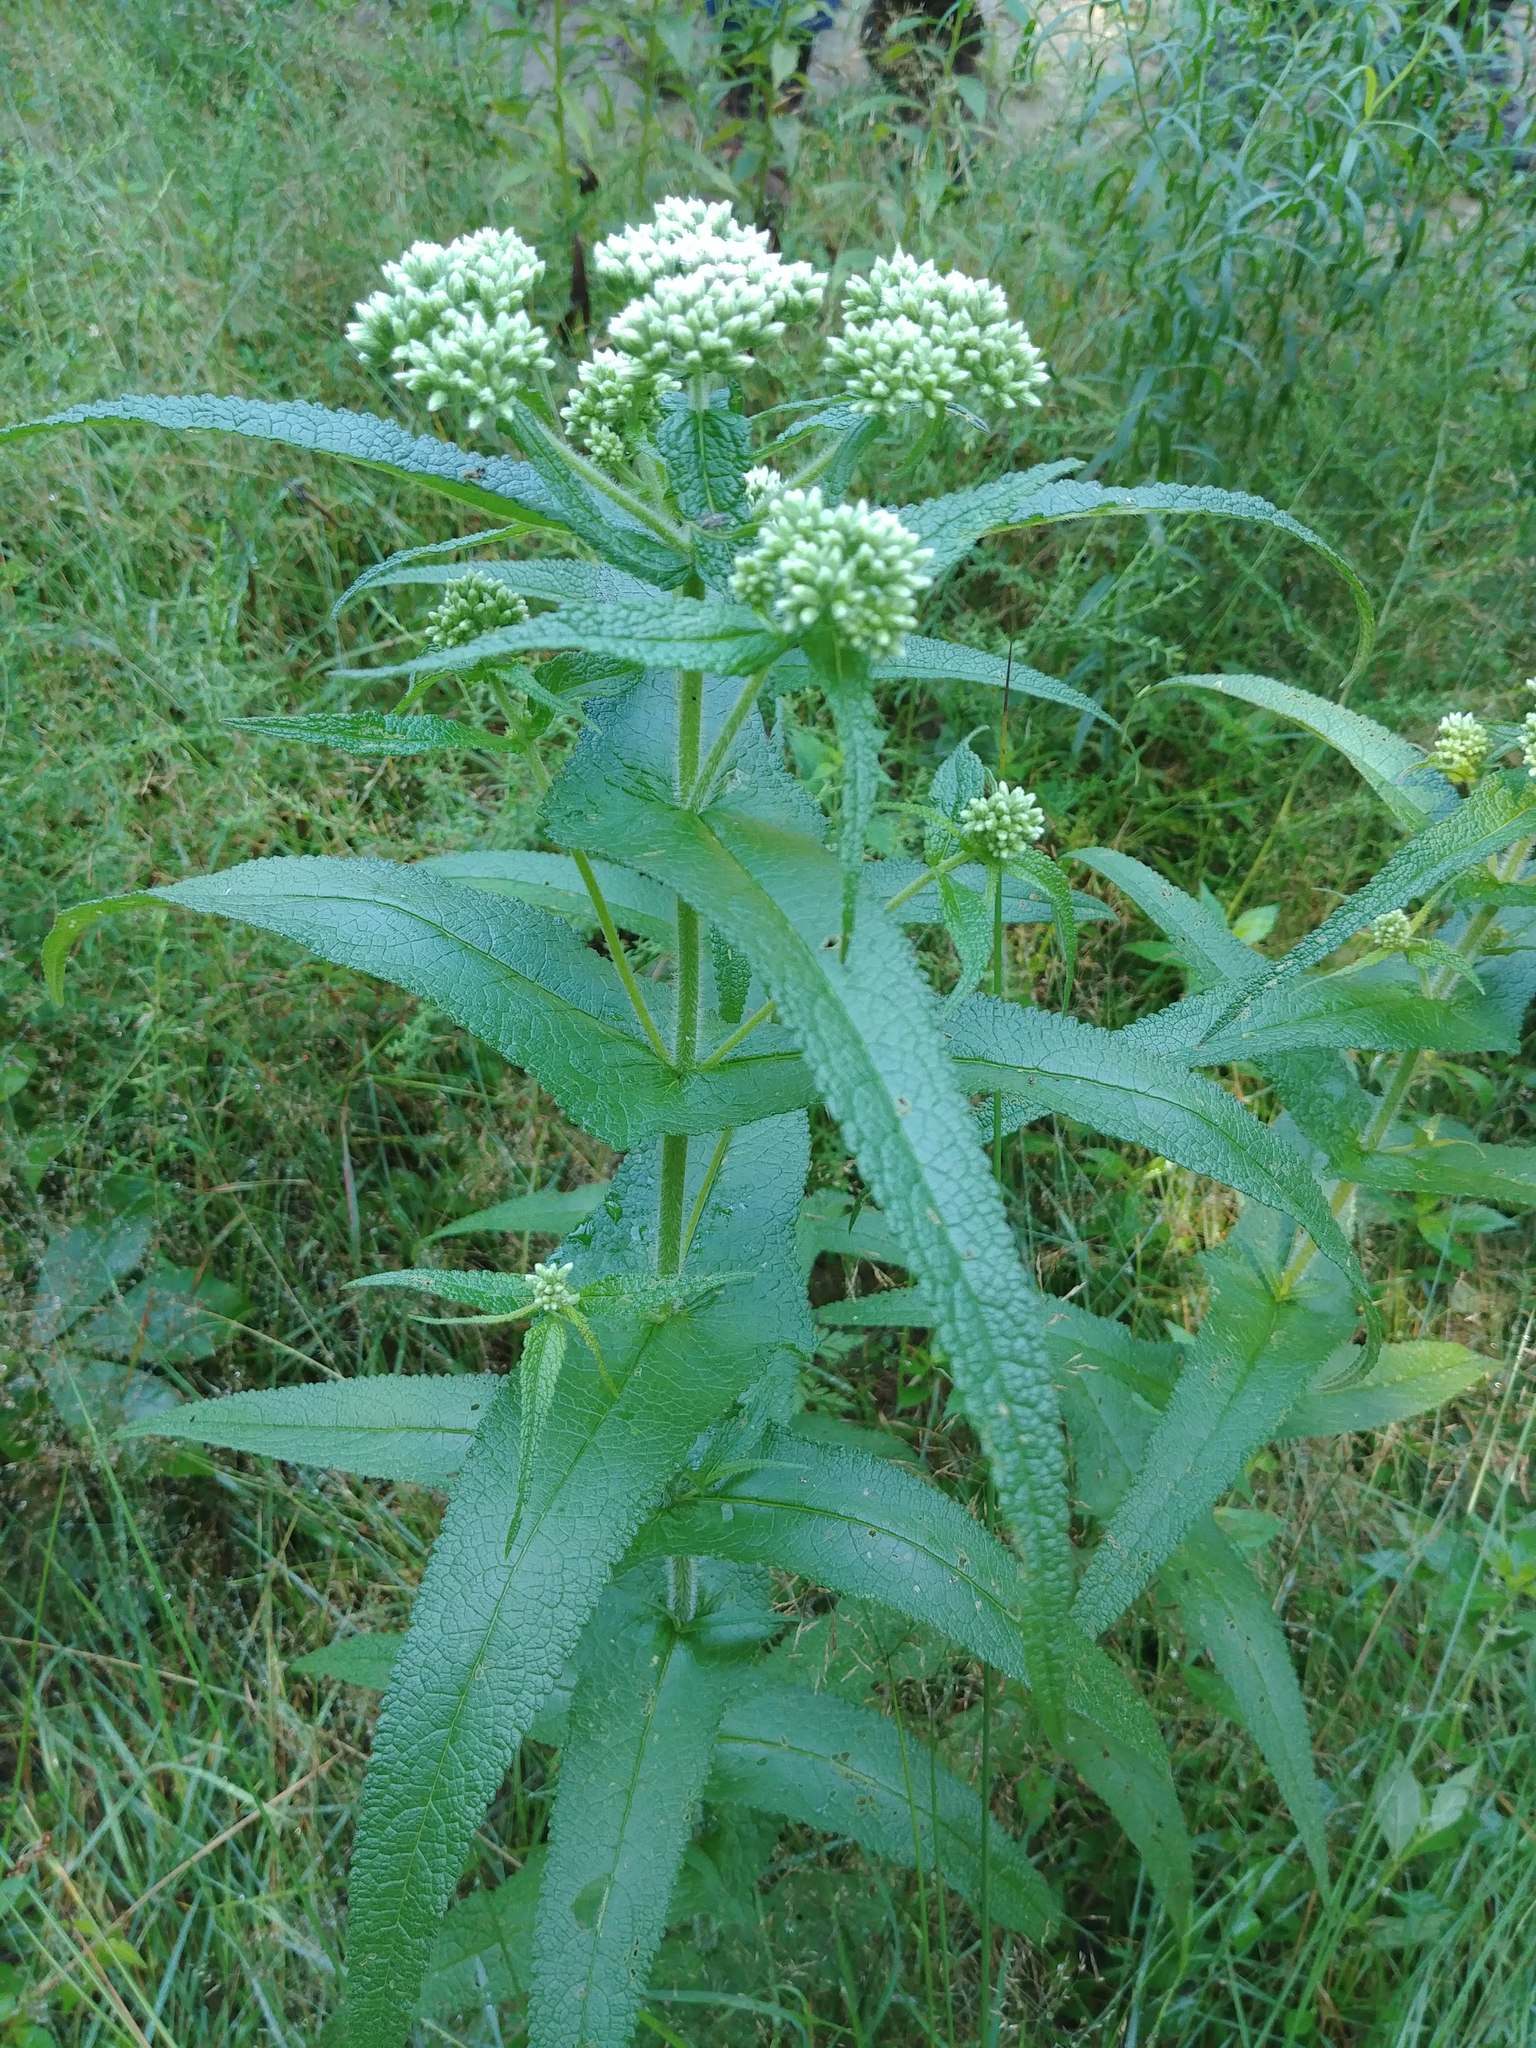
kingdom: Plantae
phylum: Tracheophyta
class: Magnoliopsida
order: Asterales
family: Asteraceae
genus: Eupatorium
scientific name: Eupatorium perfoliatum
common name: Boneset
